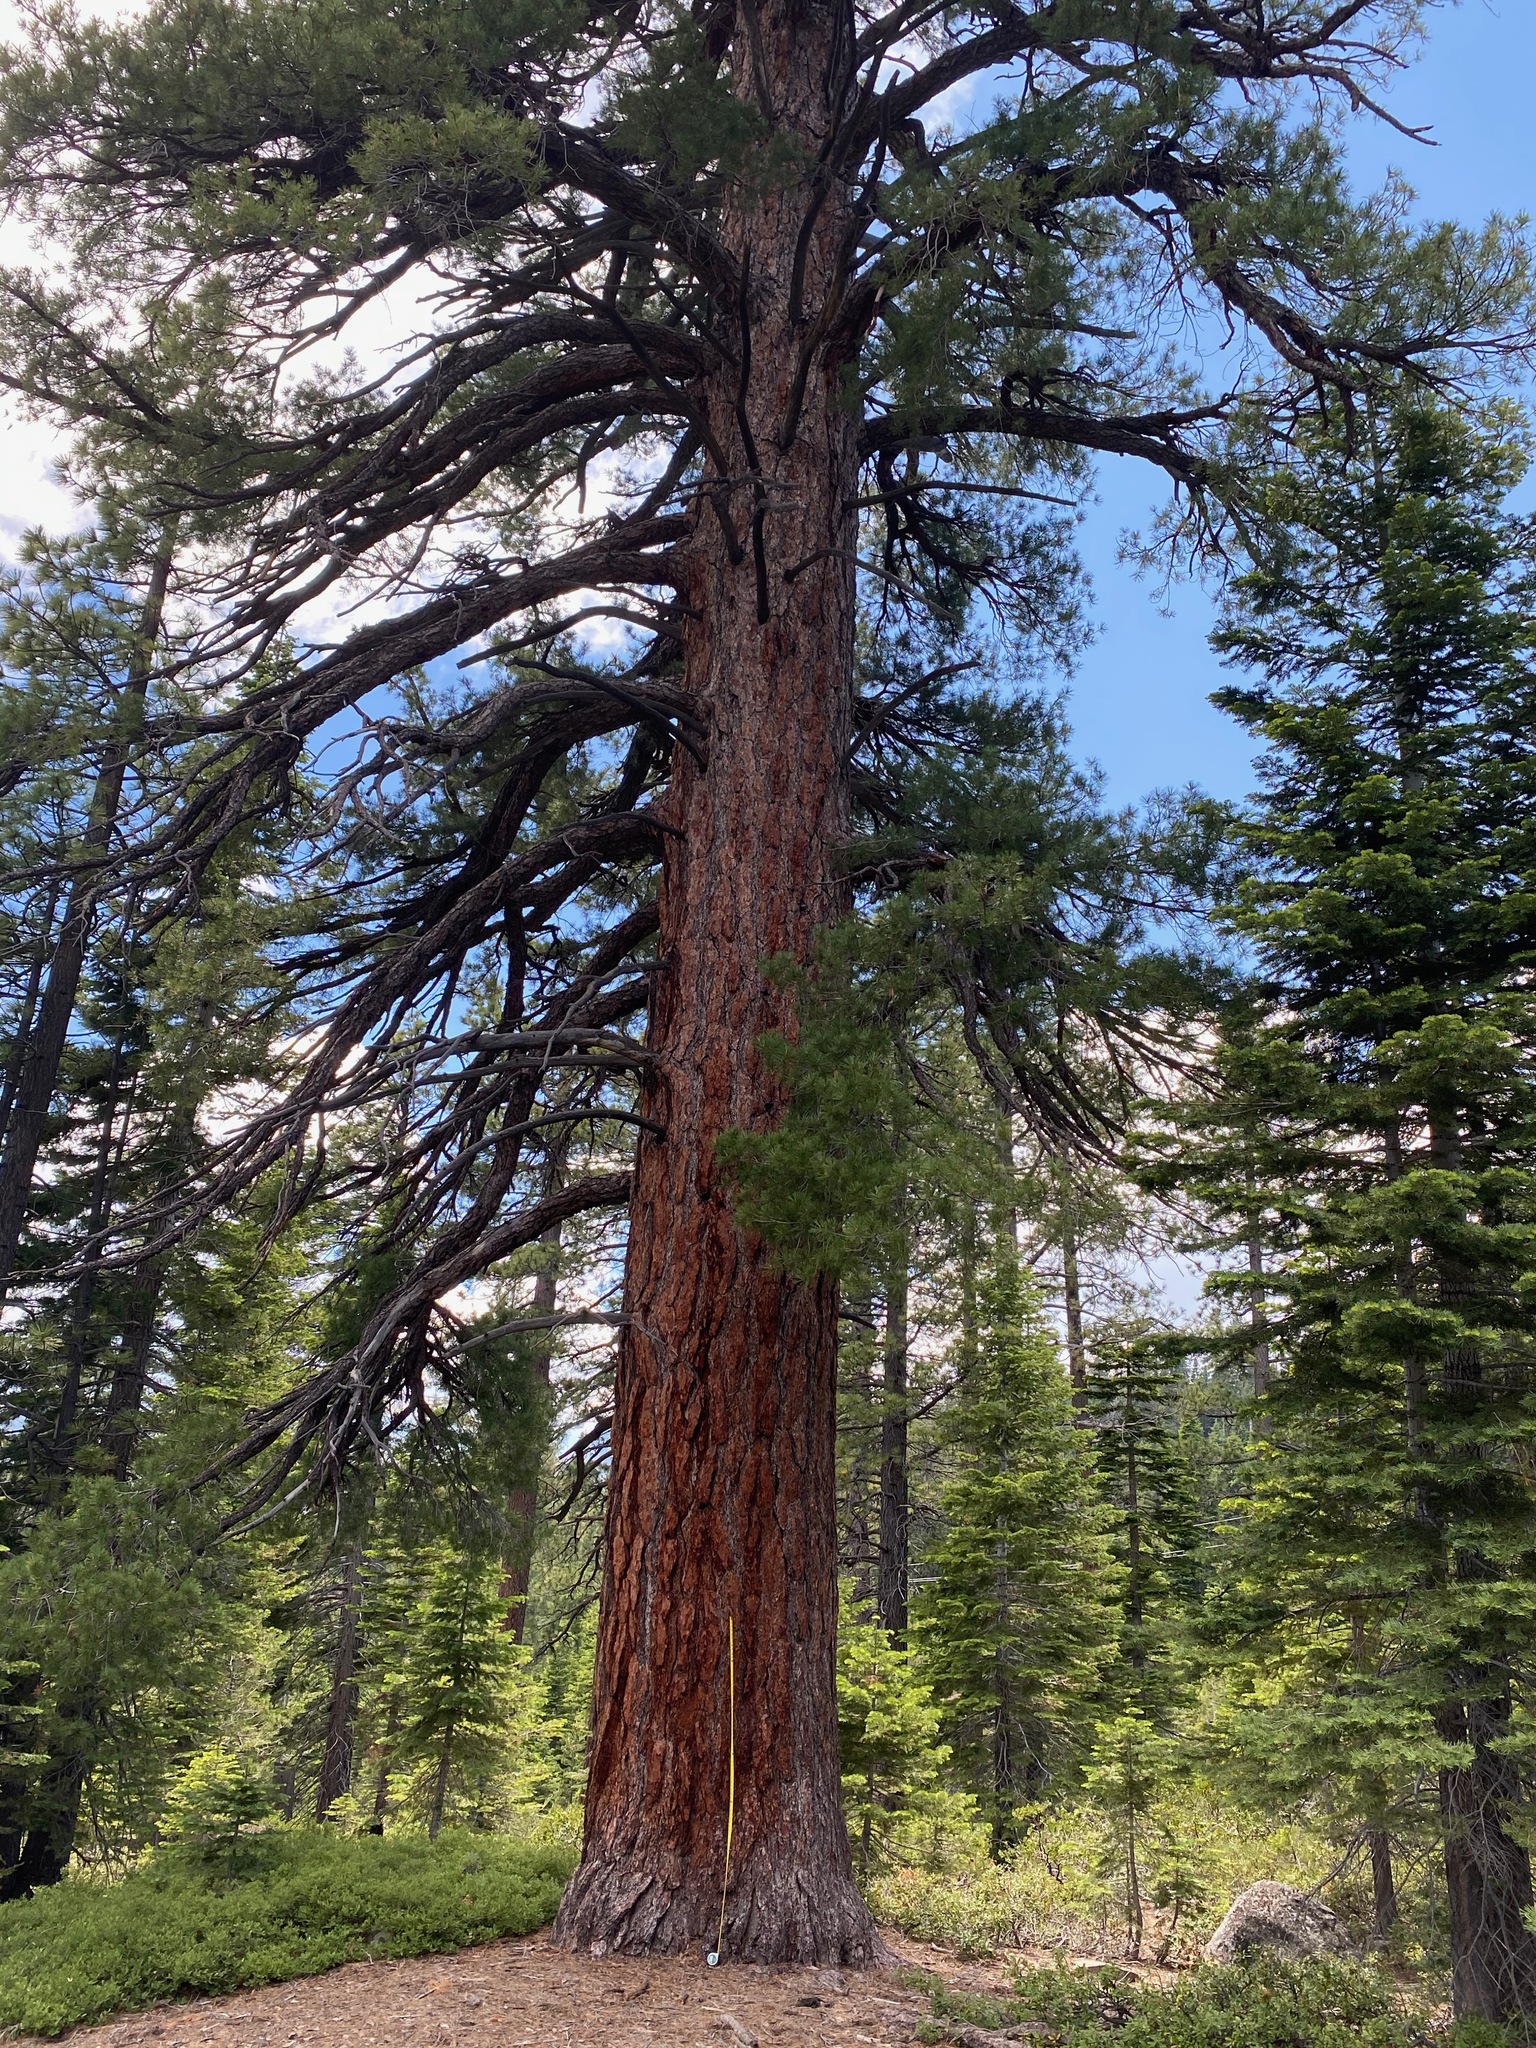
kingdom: Plantae
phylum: Tracheophyta
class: Pinopsida
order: Pinales
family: Pinaceae
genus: Pinus
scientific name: Pinus lambertiana
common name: Sugar pine
